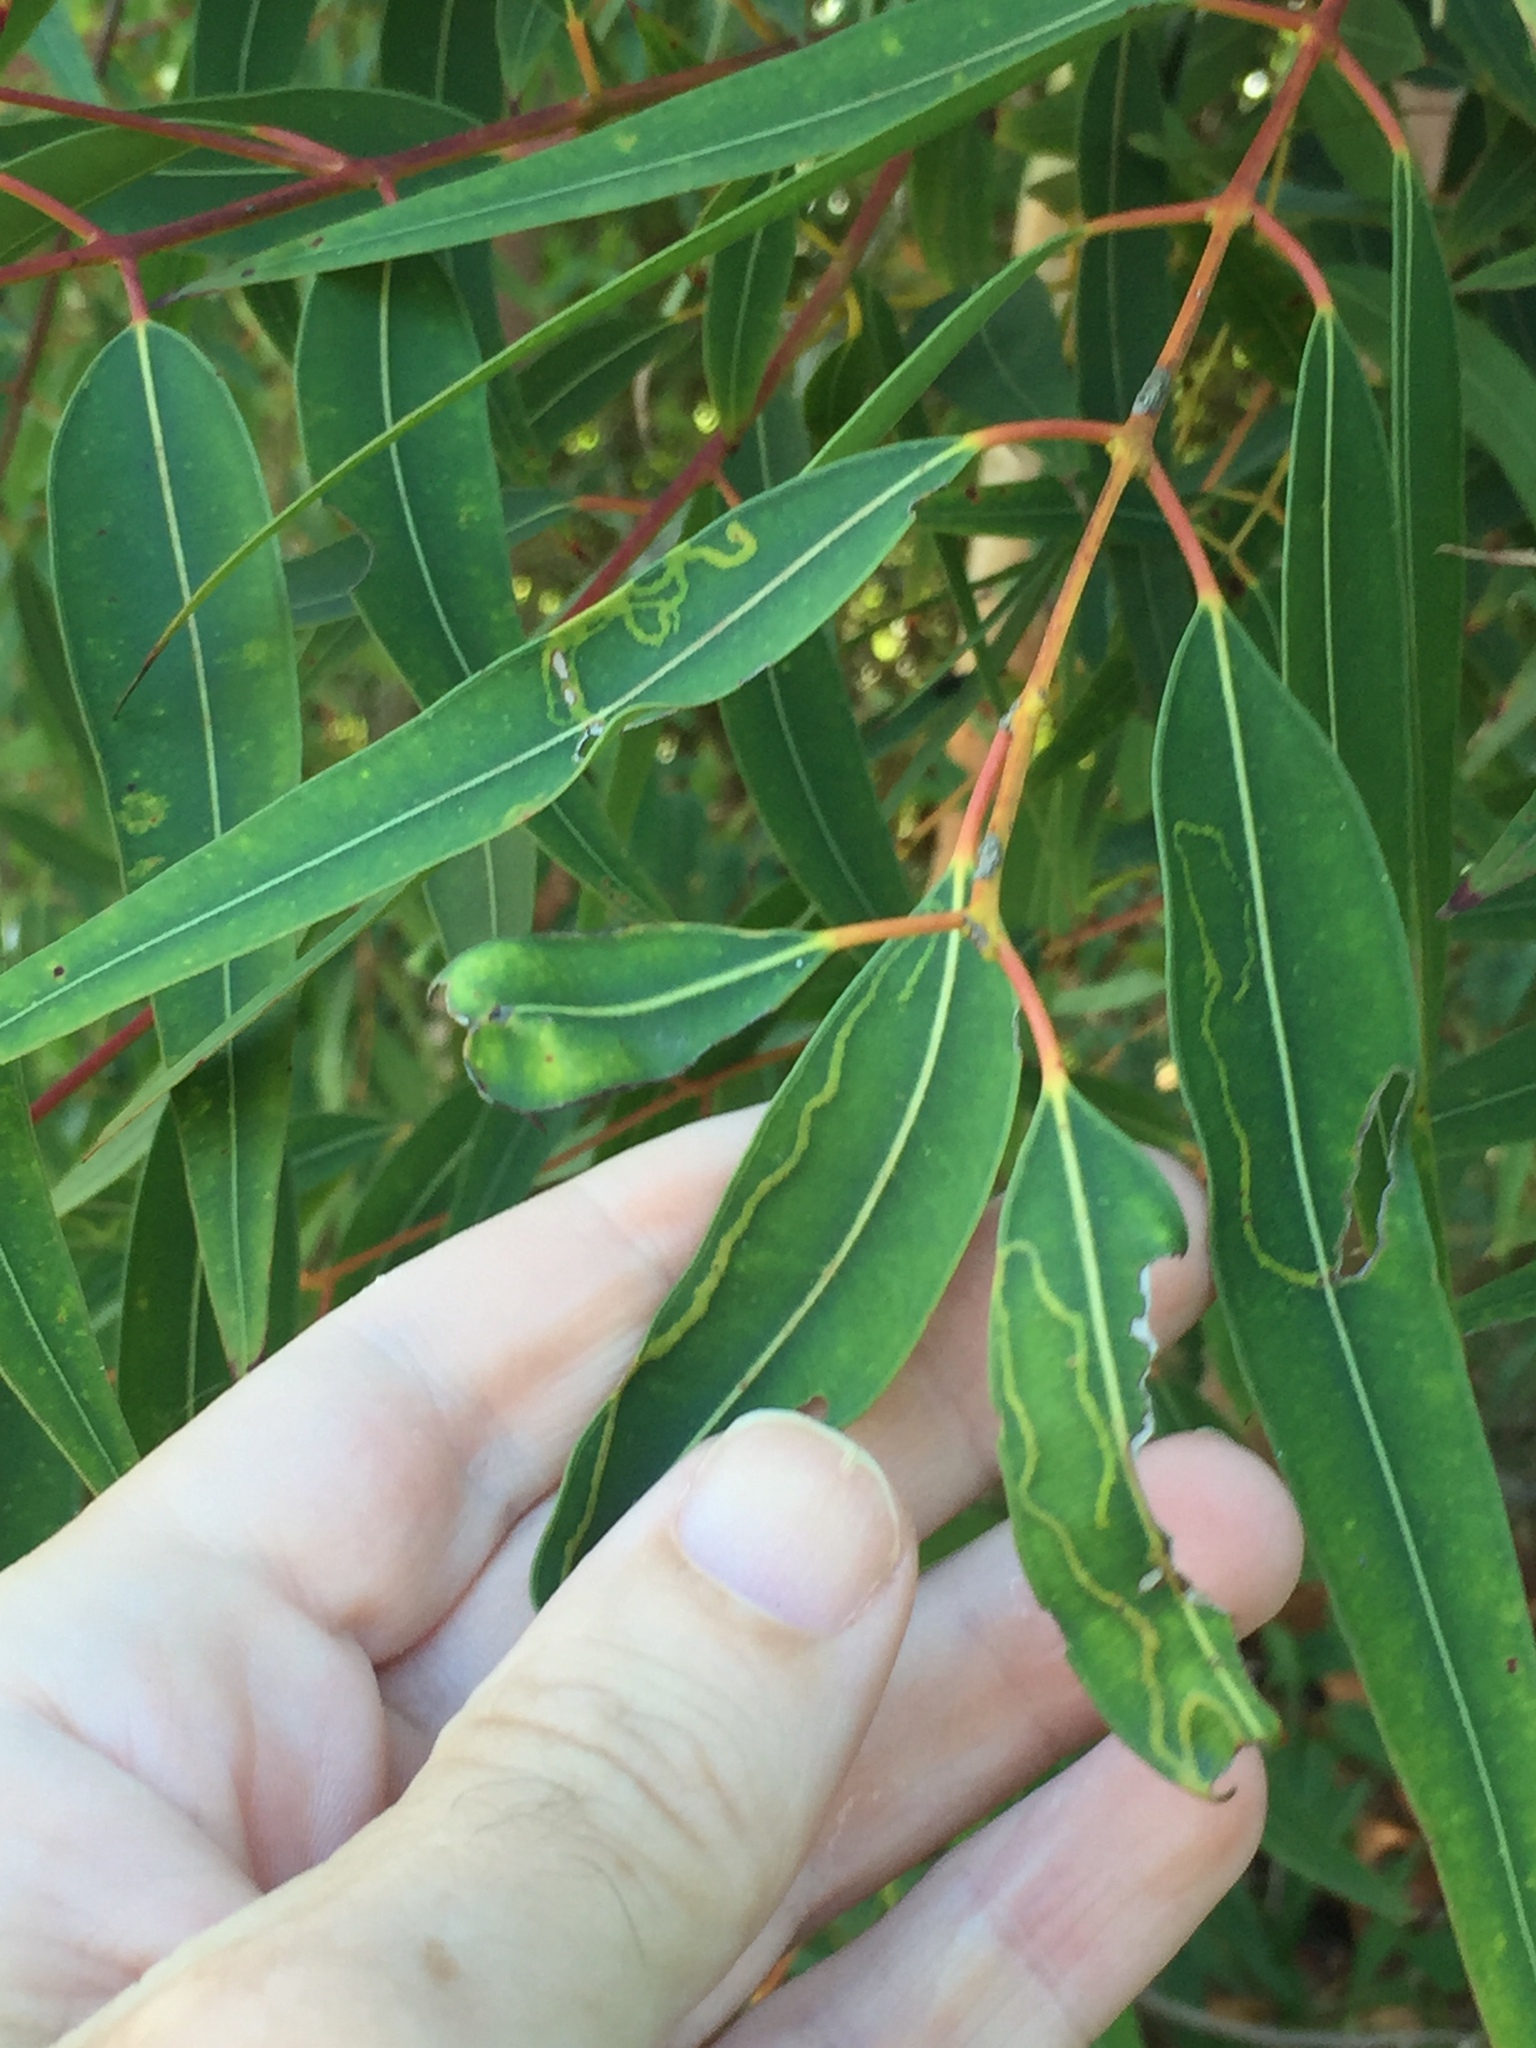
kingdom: Animalia
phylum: Arthropoda
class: Insecta
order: Lepidoptera
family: Gracillariidae
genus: Macarostola
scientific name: Macarostola ida
